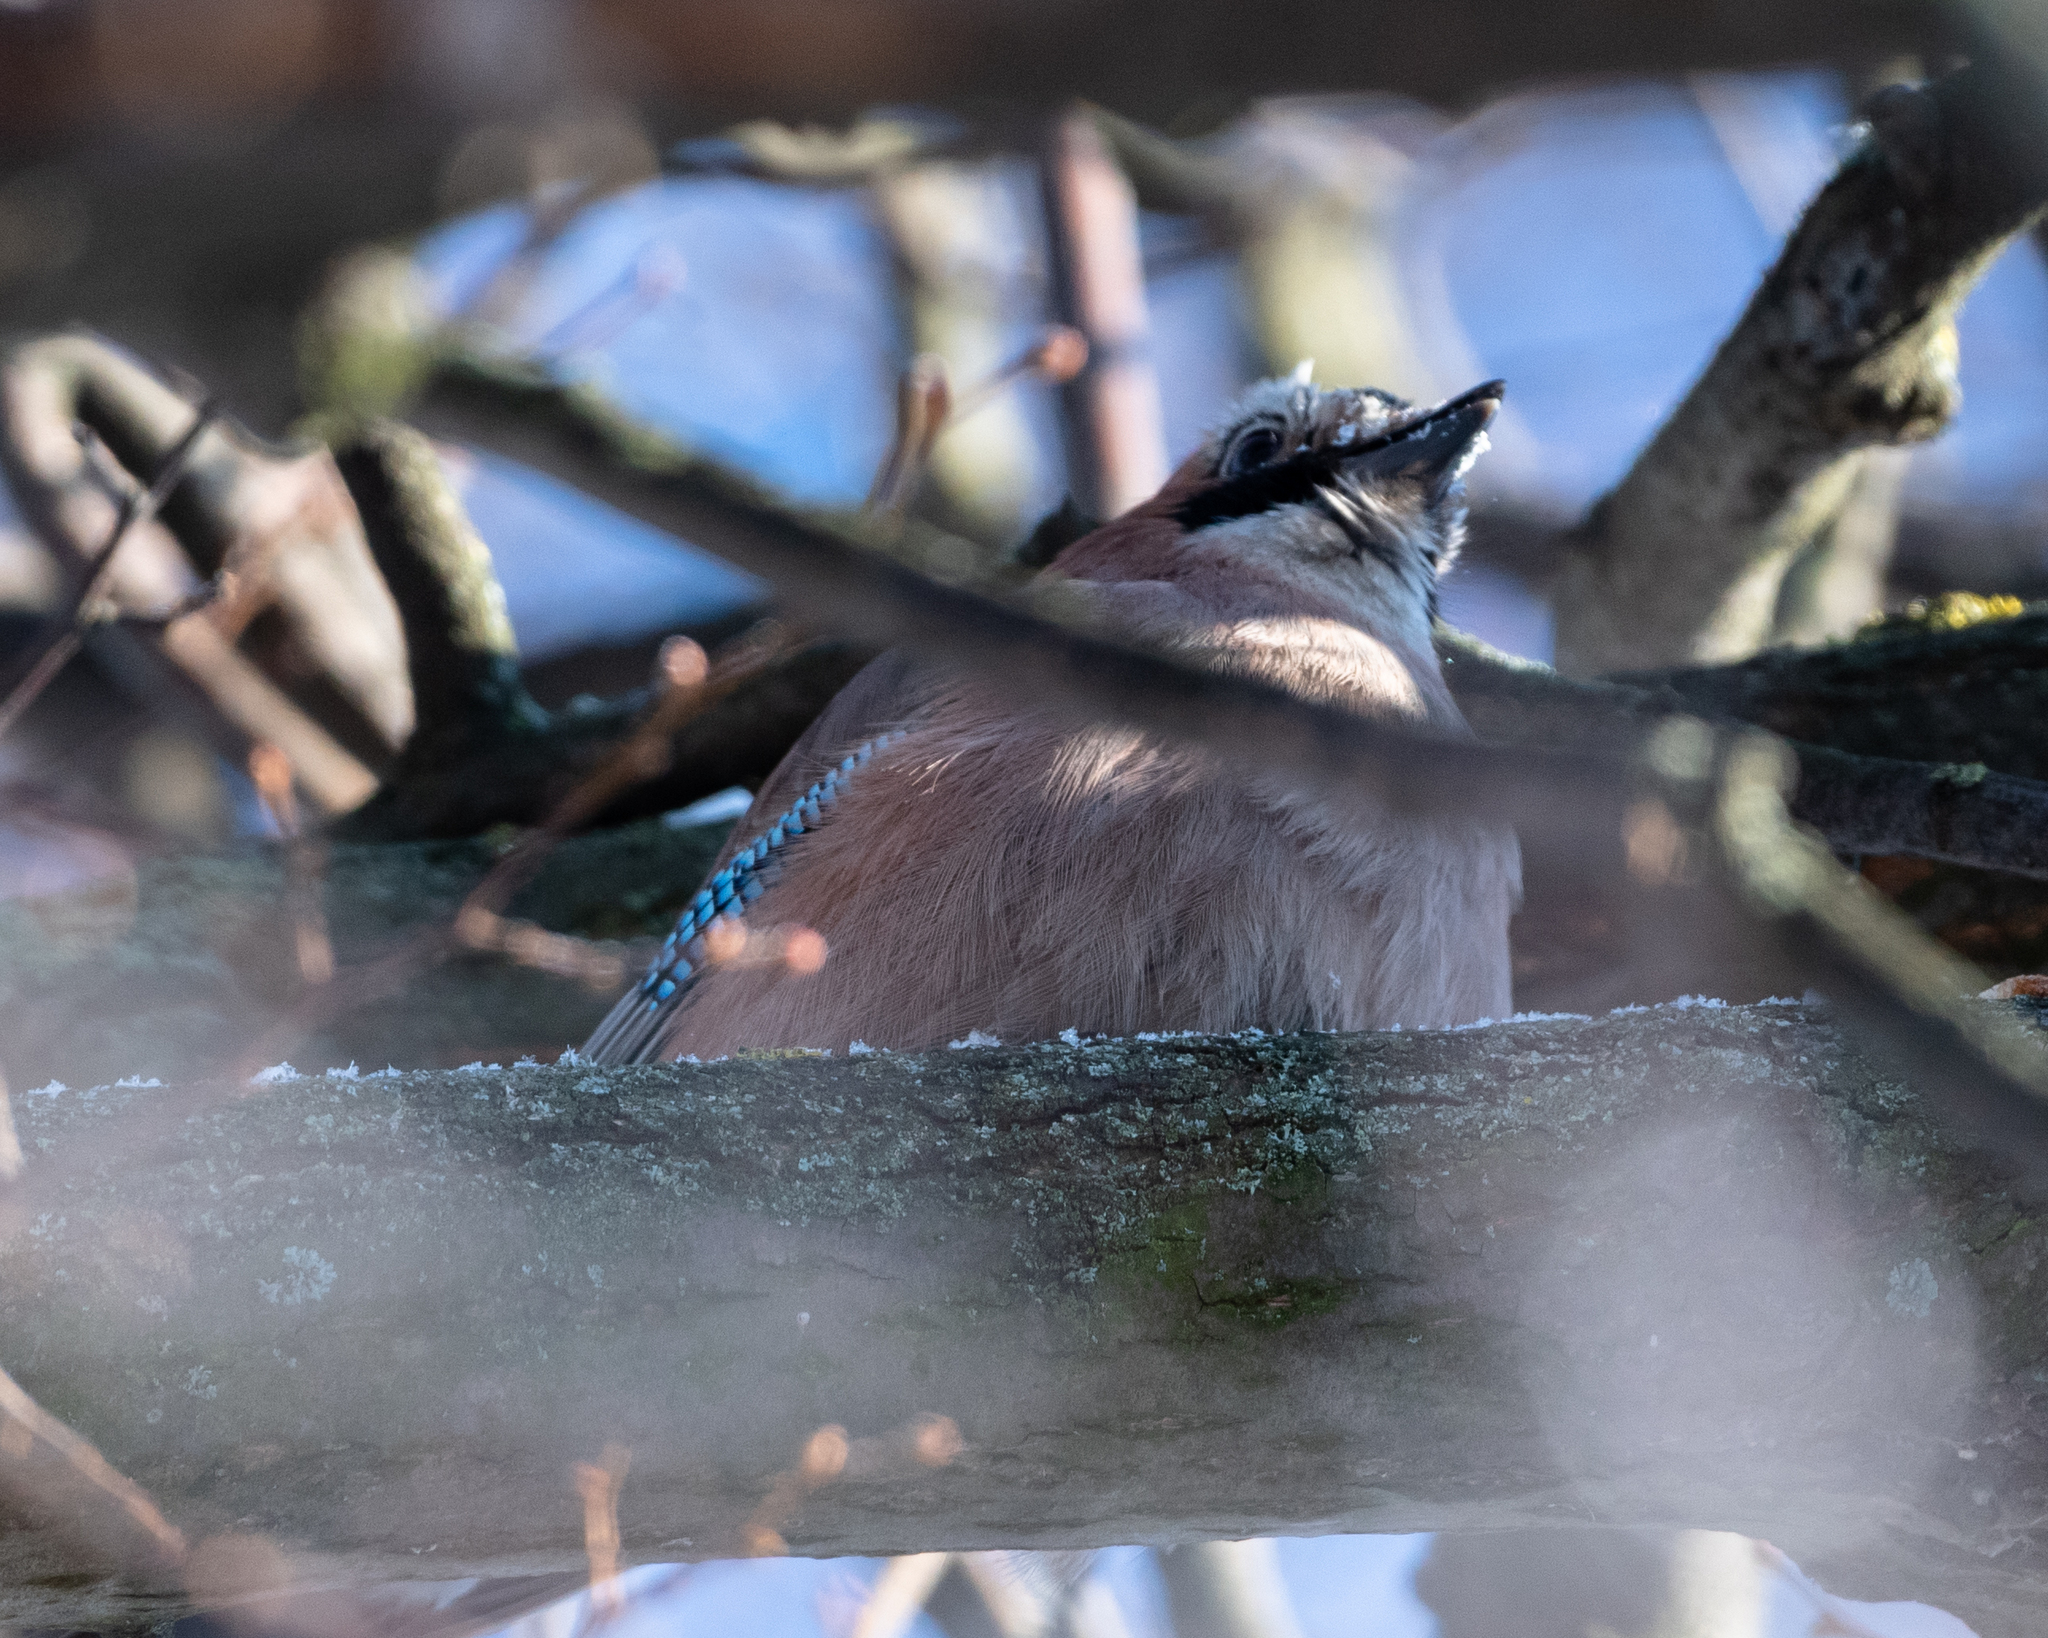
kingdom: Animalia
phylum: Chordata
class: Aves
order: Passeriformes
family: Corvidae
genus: Garrulus
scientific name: Garrulus glandarius
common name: Eurasian jay
